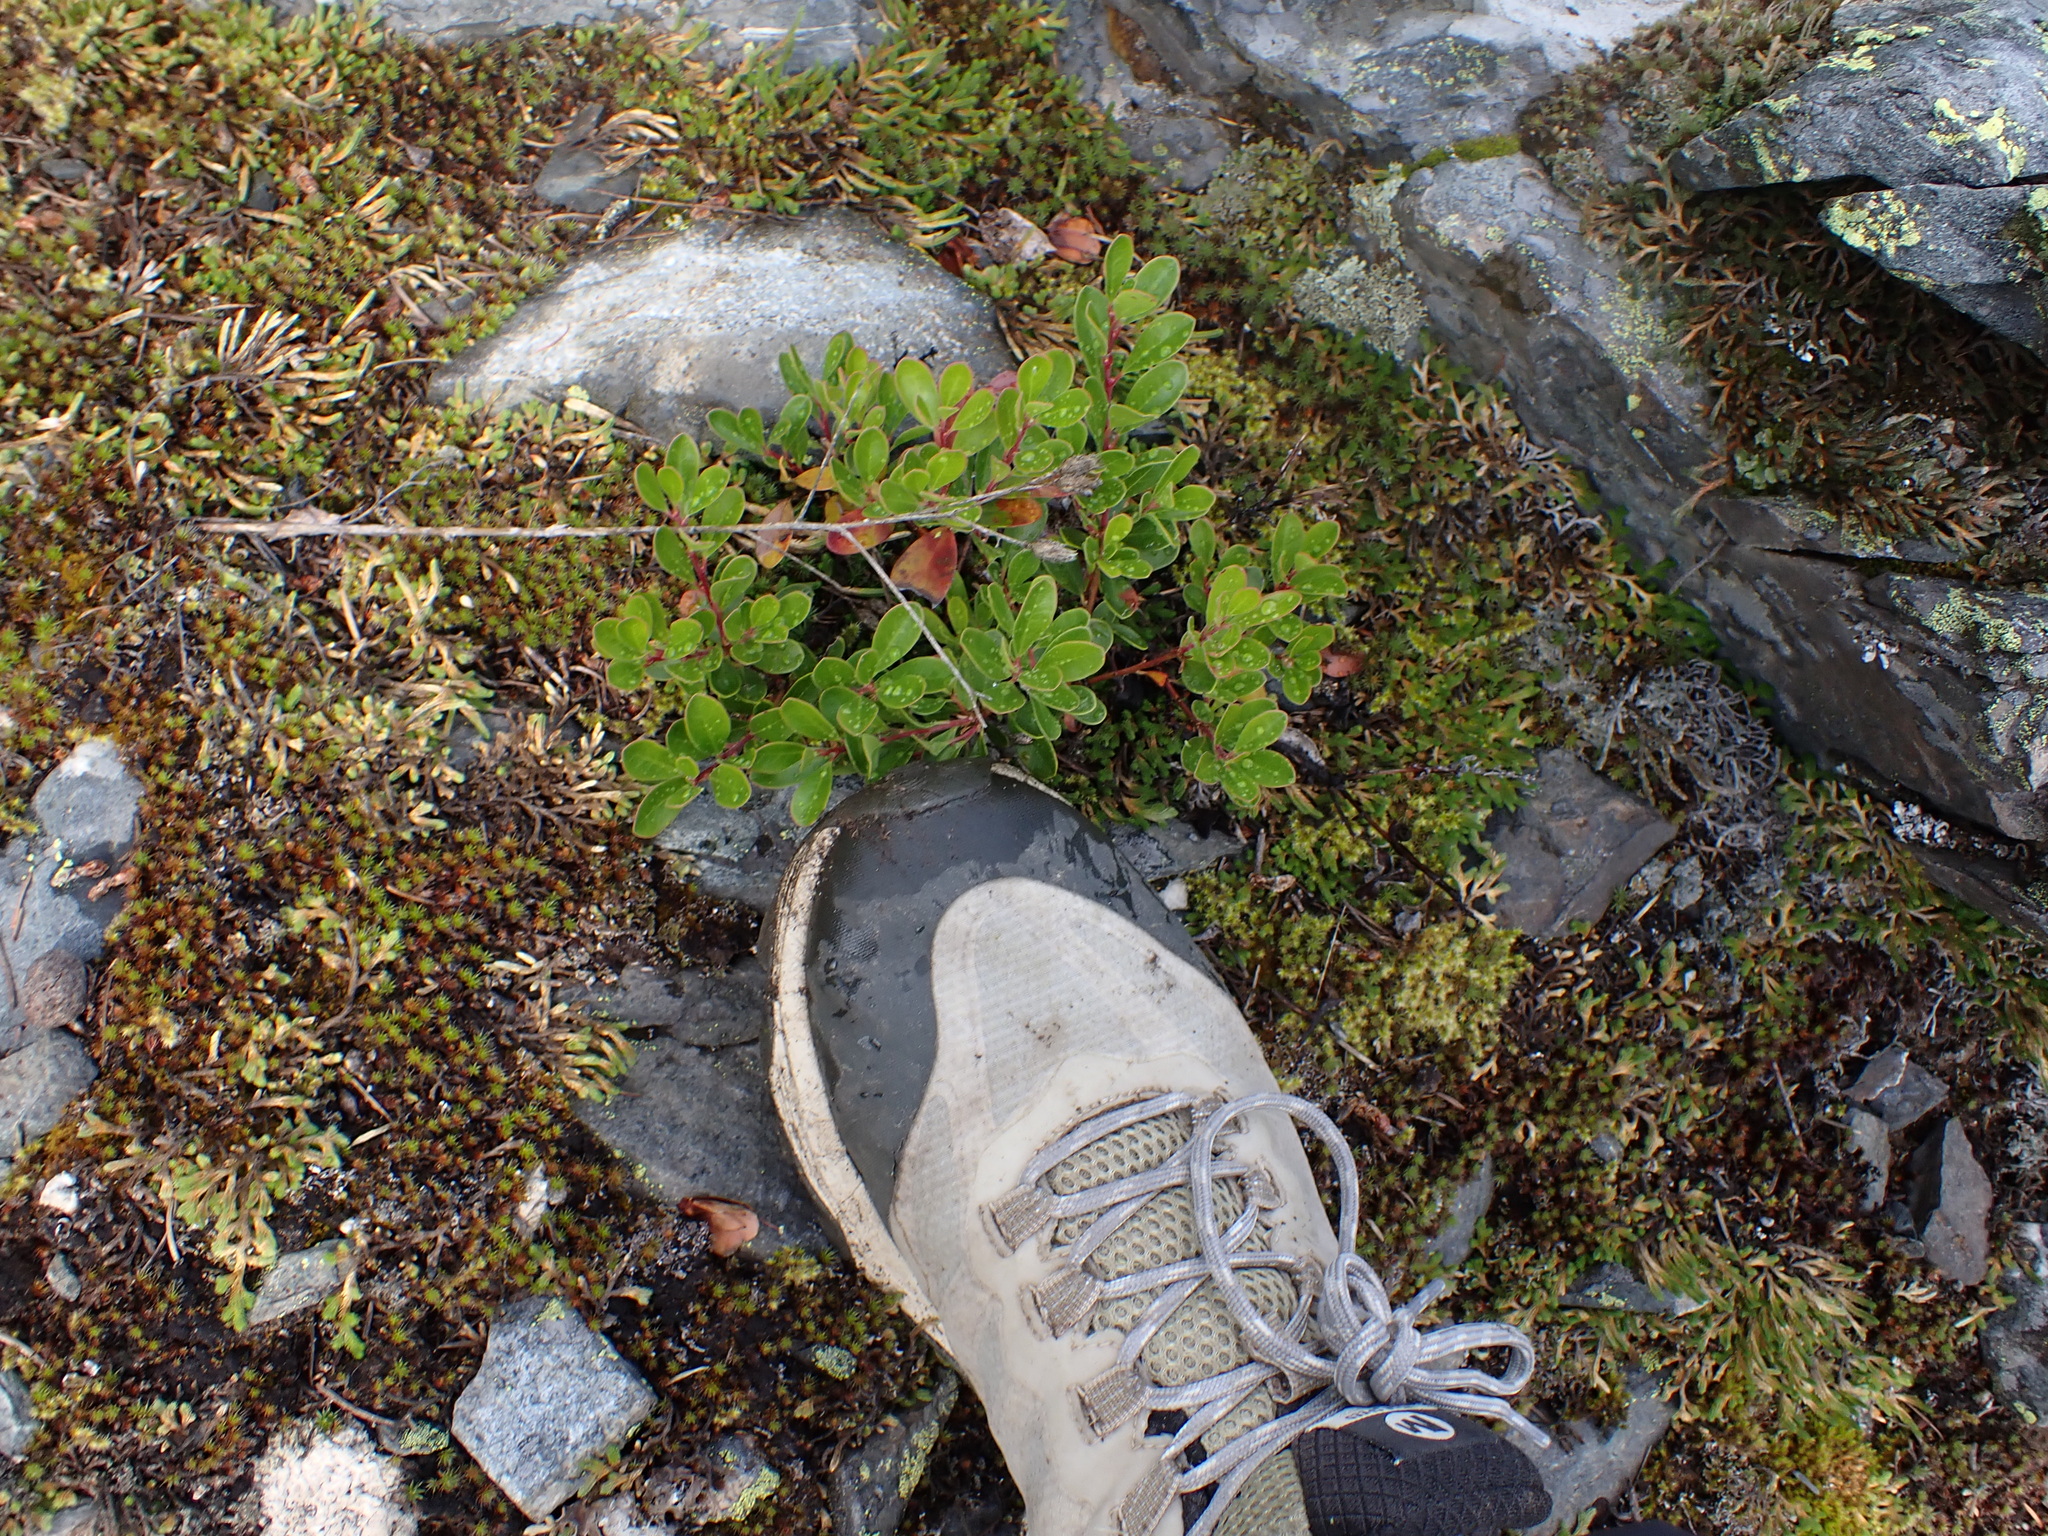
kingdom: Plantae
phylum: Tracheophyta
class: Magnoliopsida
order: Ericales
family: Ericaceae
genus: Arctostaphylos
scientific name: Arctostaphylos uva-ursi
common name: Bearberry
